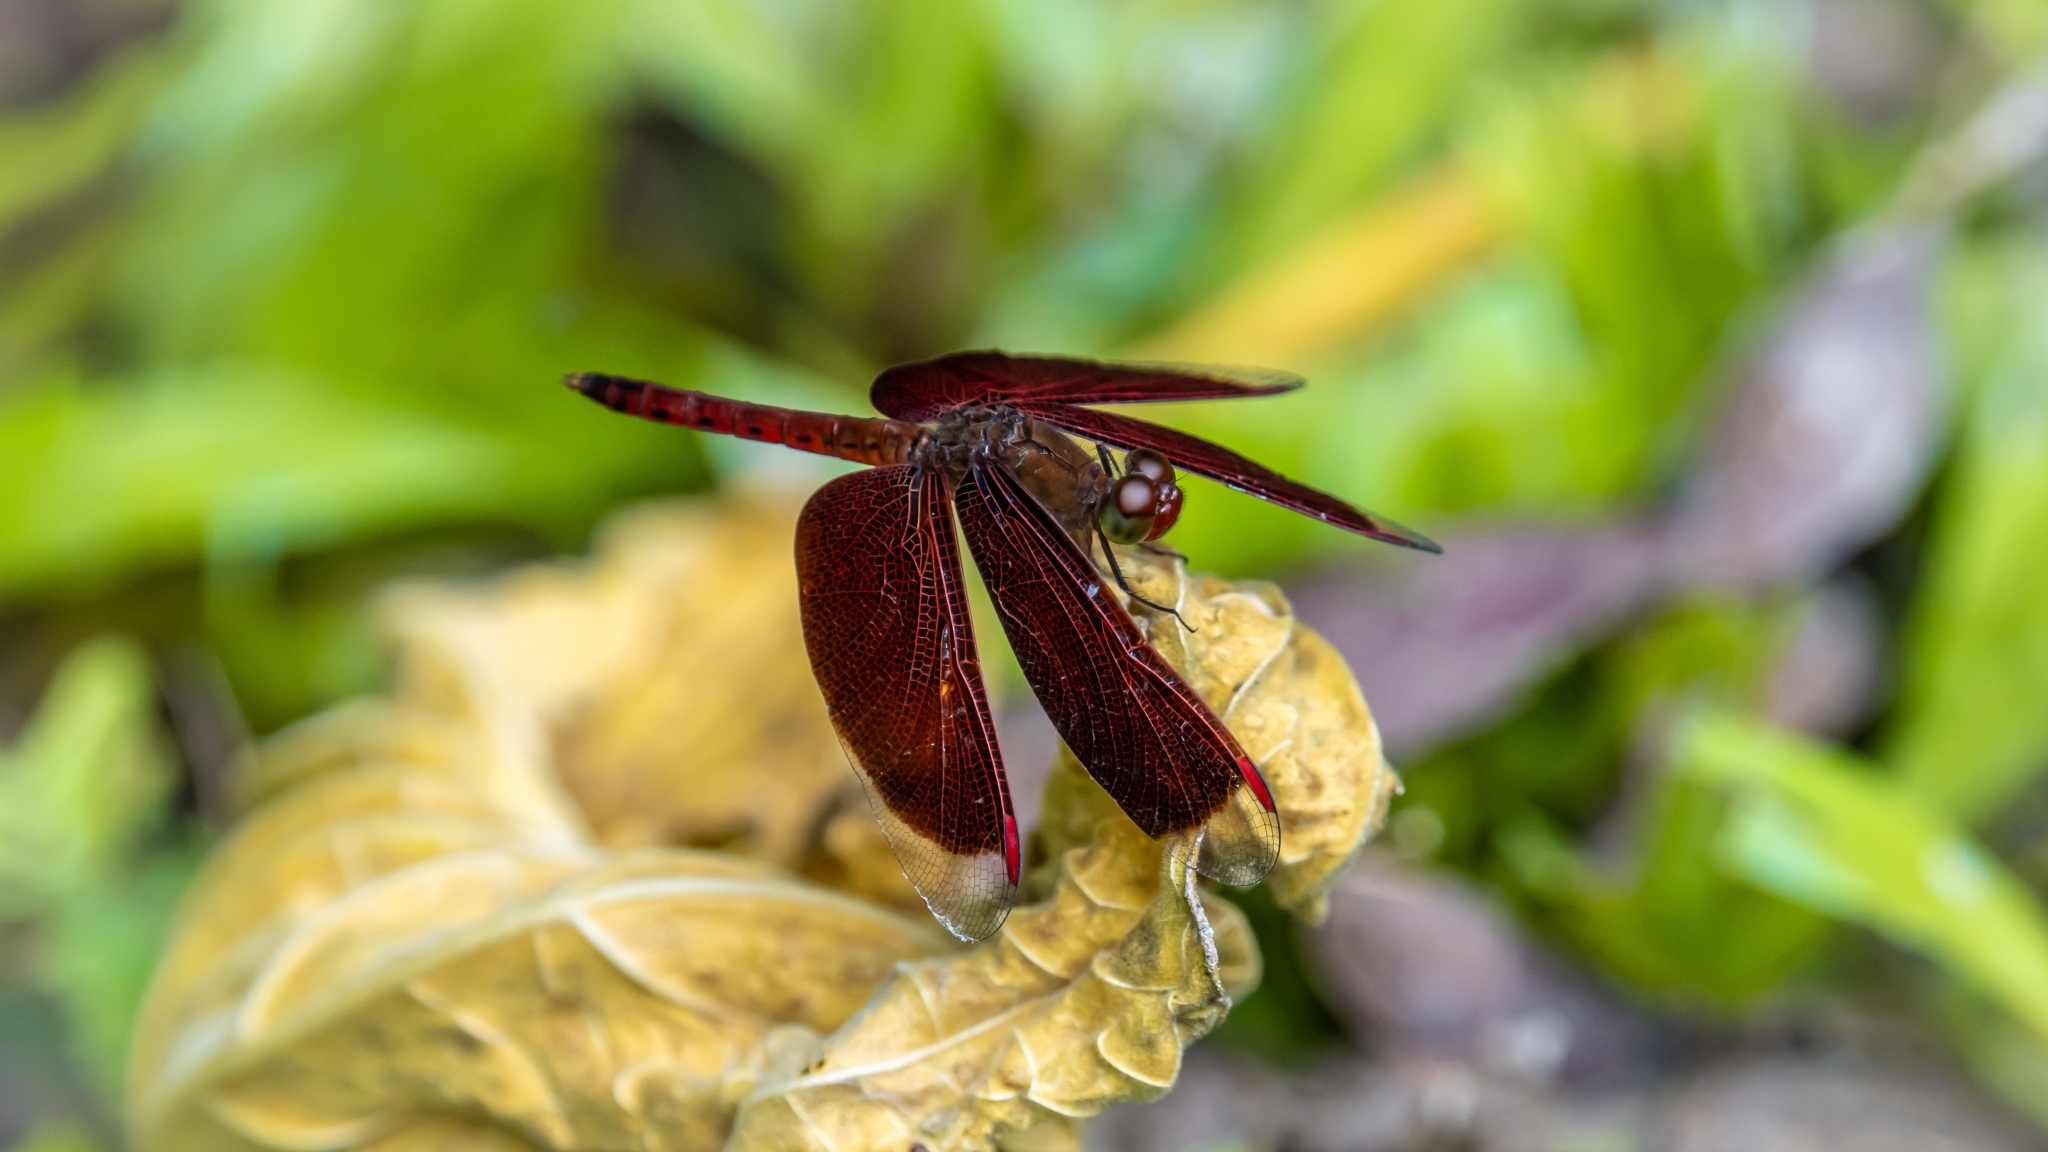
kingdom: Animalia
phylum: Arthropoda
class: Insecta
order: Odonata
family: Libellulidae
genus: Neurothemis
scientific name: Neurothemis fluctuans
